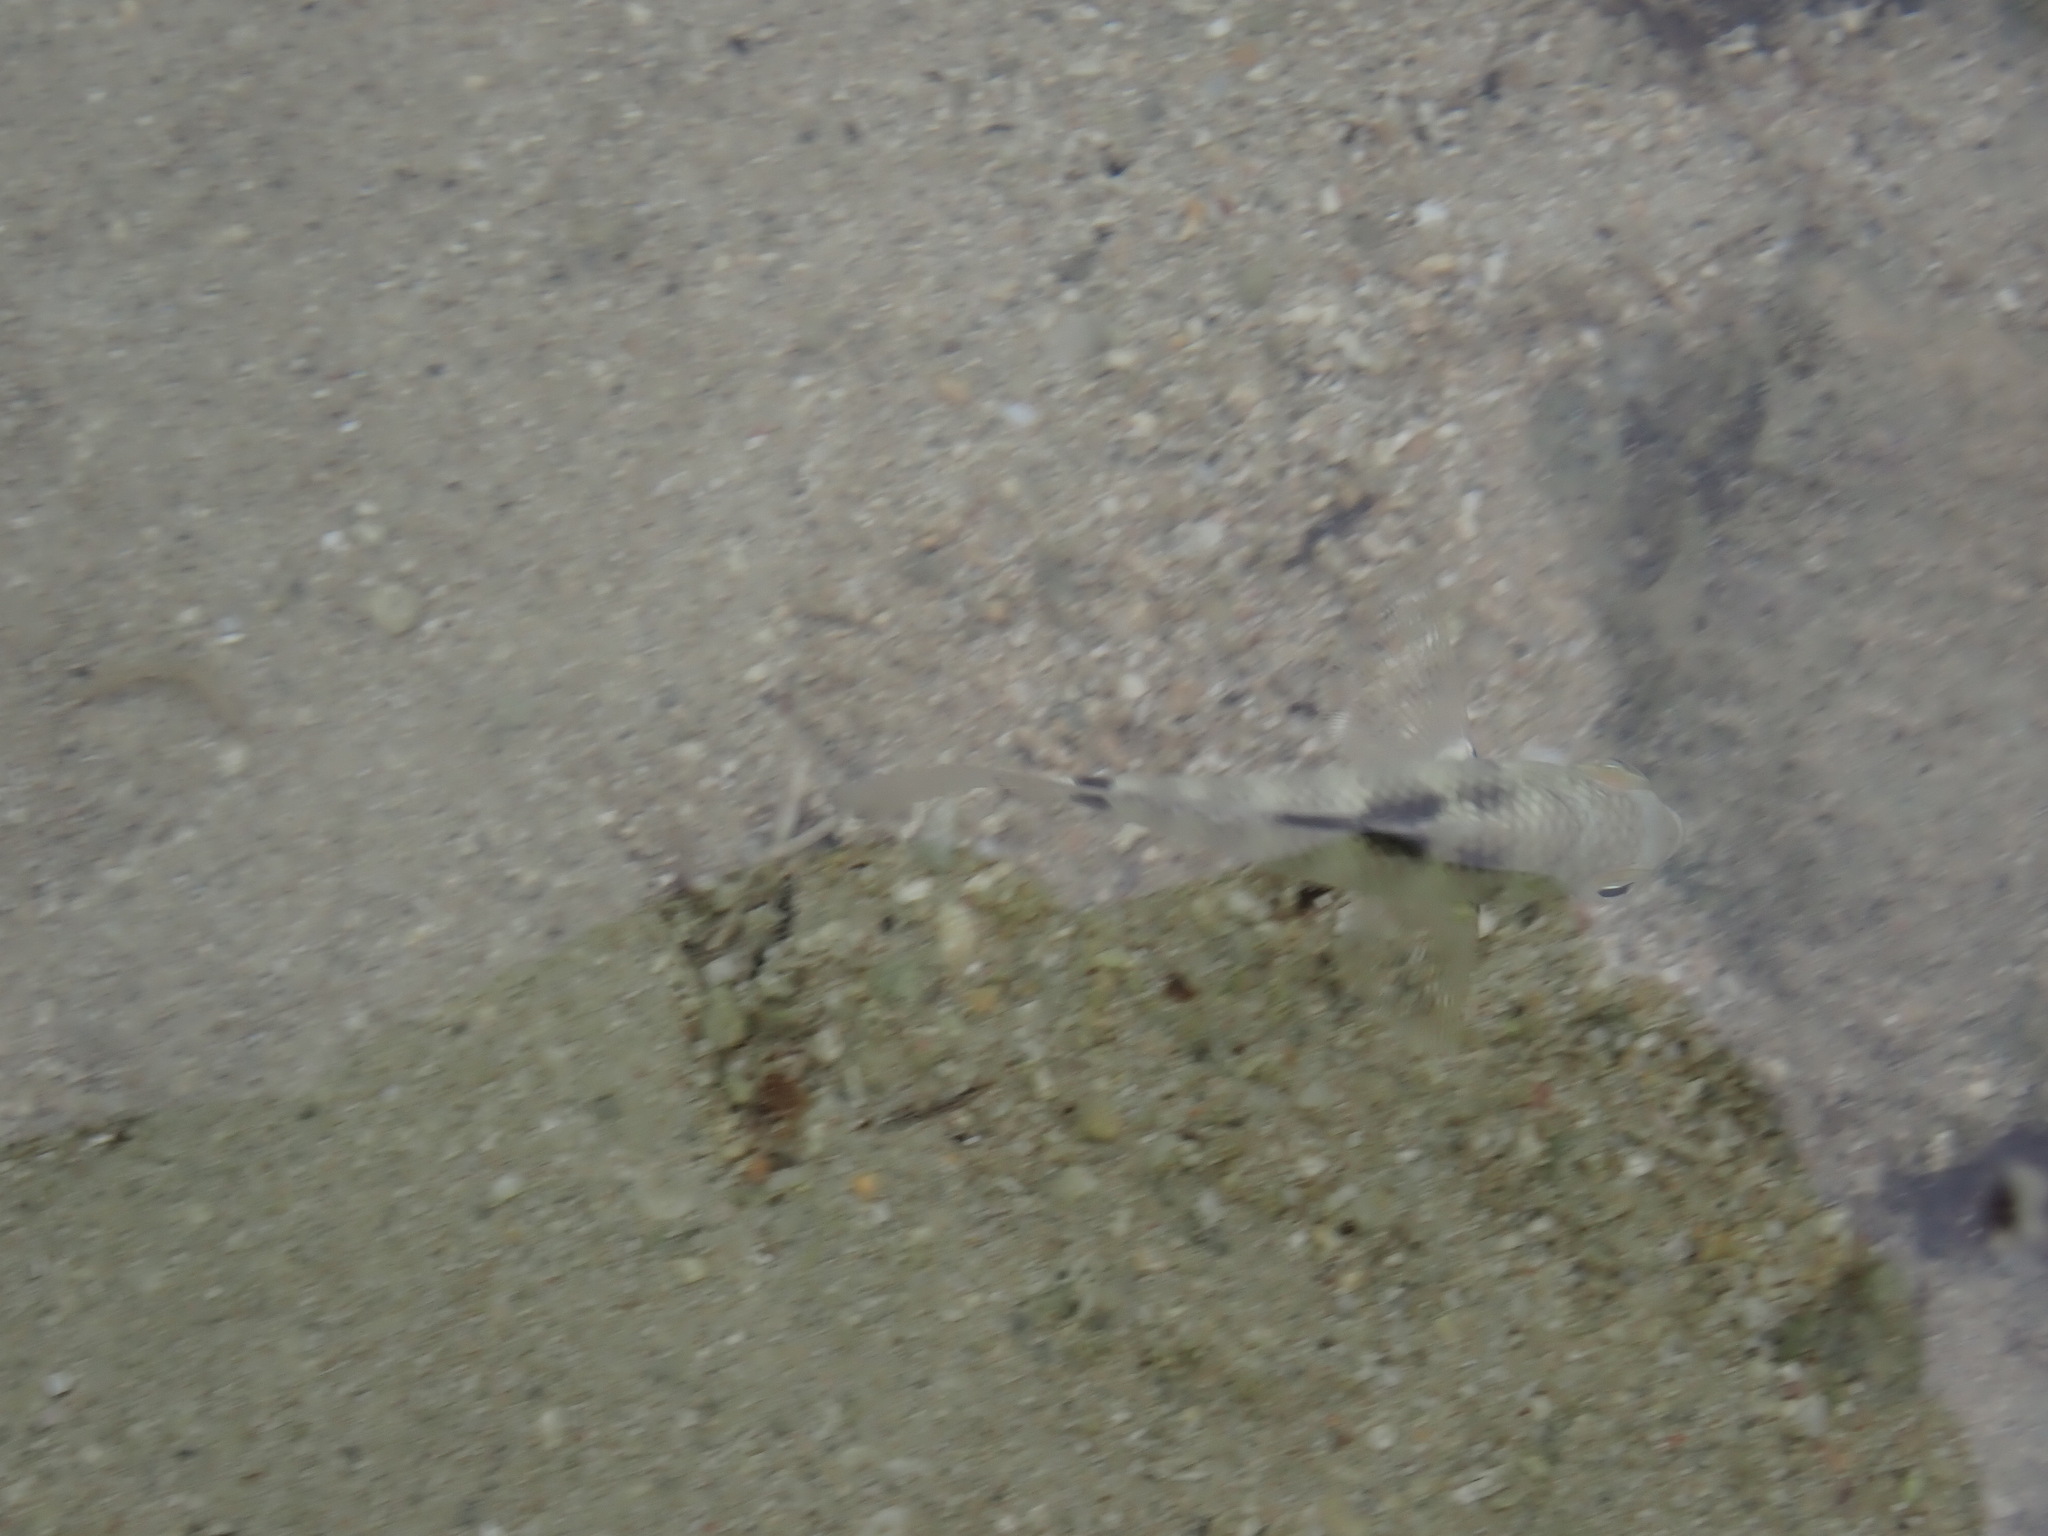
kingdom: Animalia
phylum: Chordata
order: Perciformes
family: Pomacentridae
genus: Abudefduf
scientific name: Abudefduf septemfasciatus
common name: Banded sergeant
